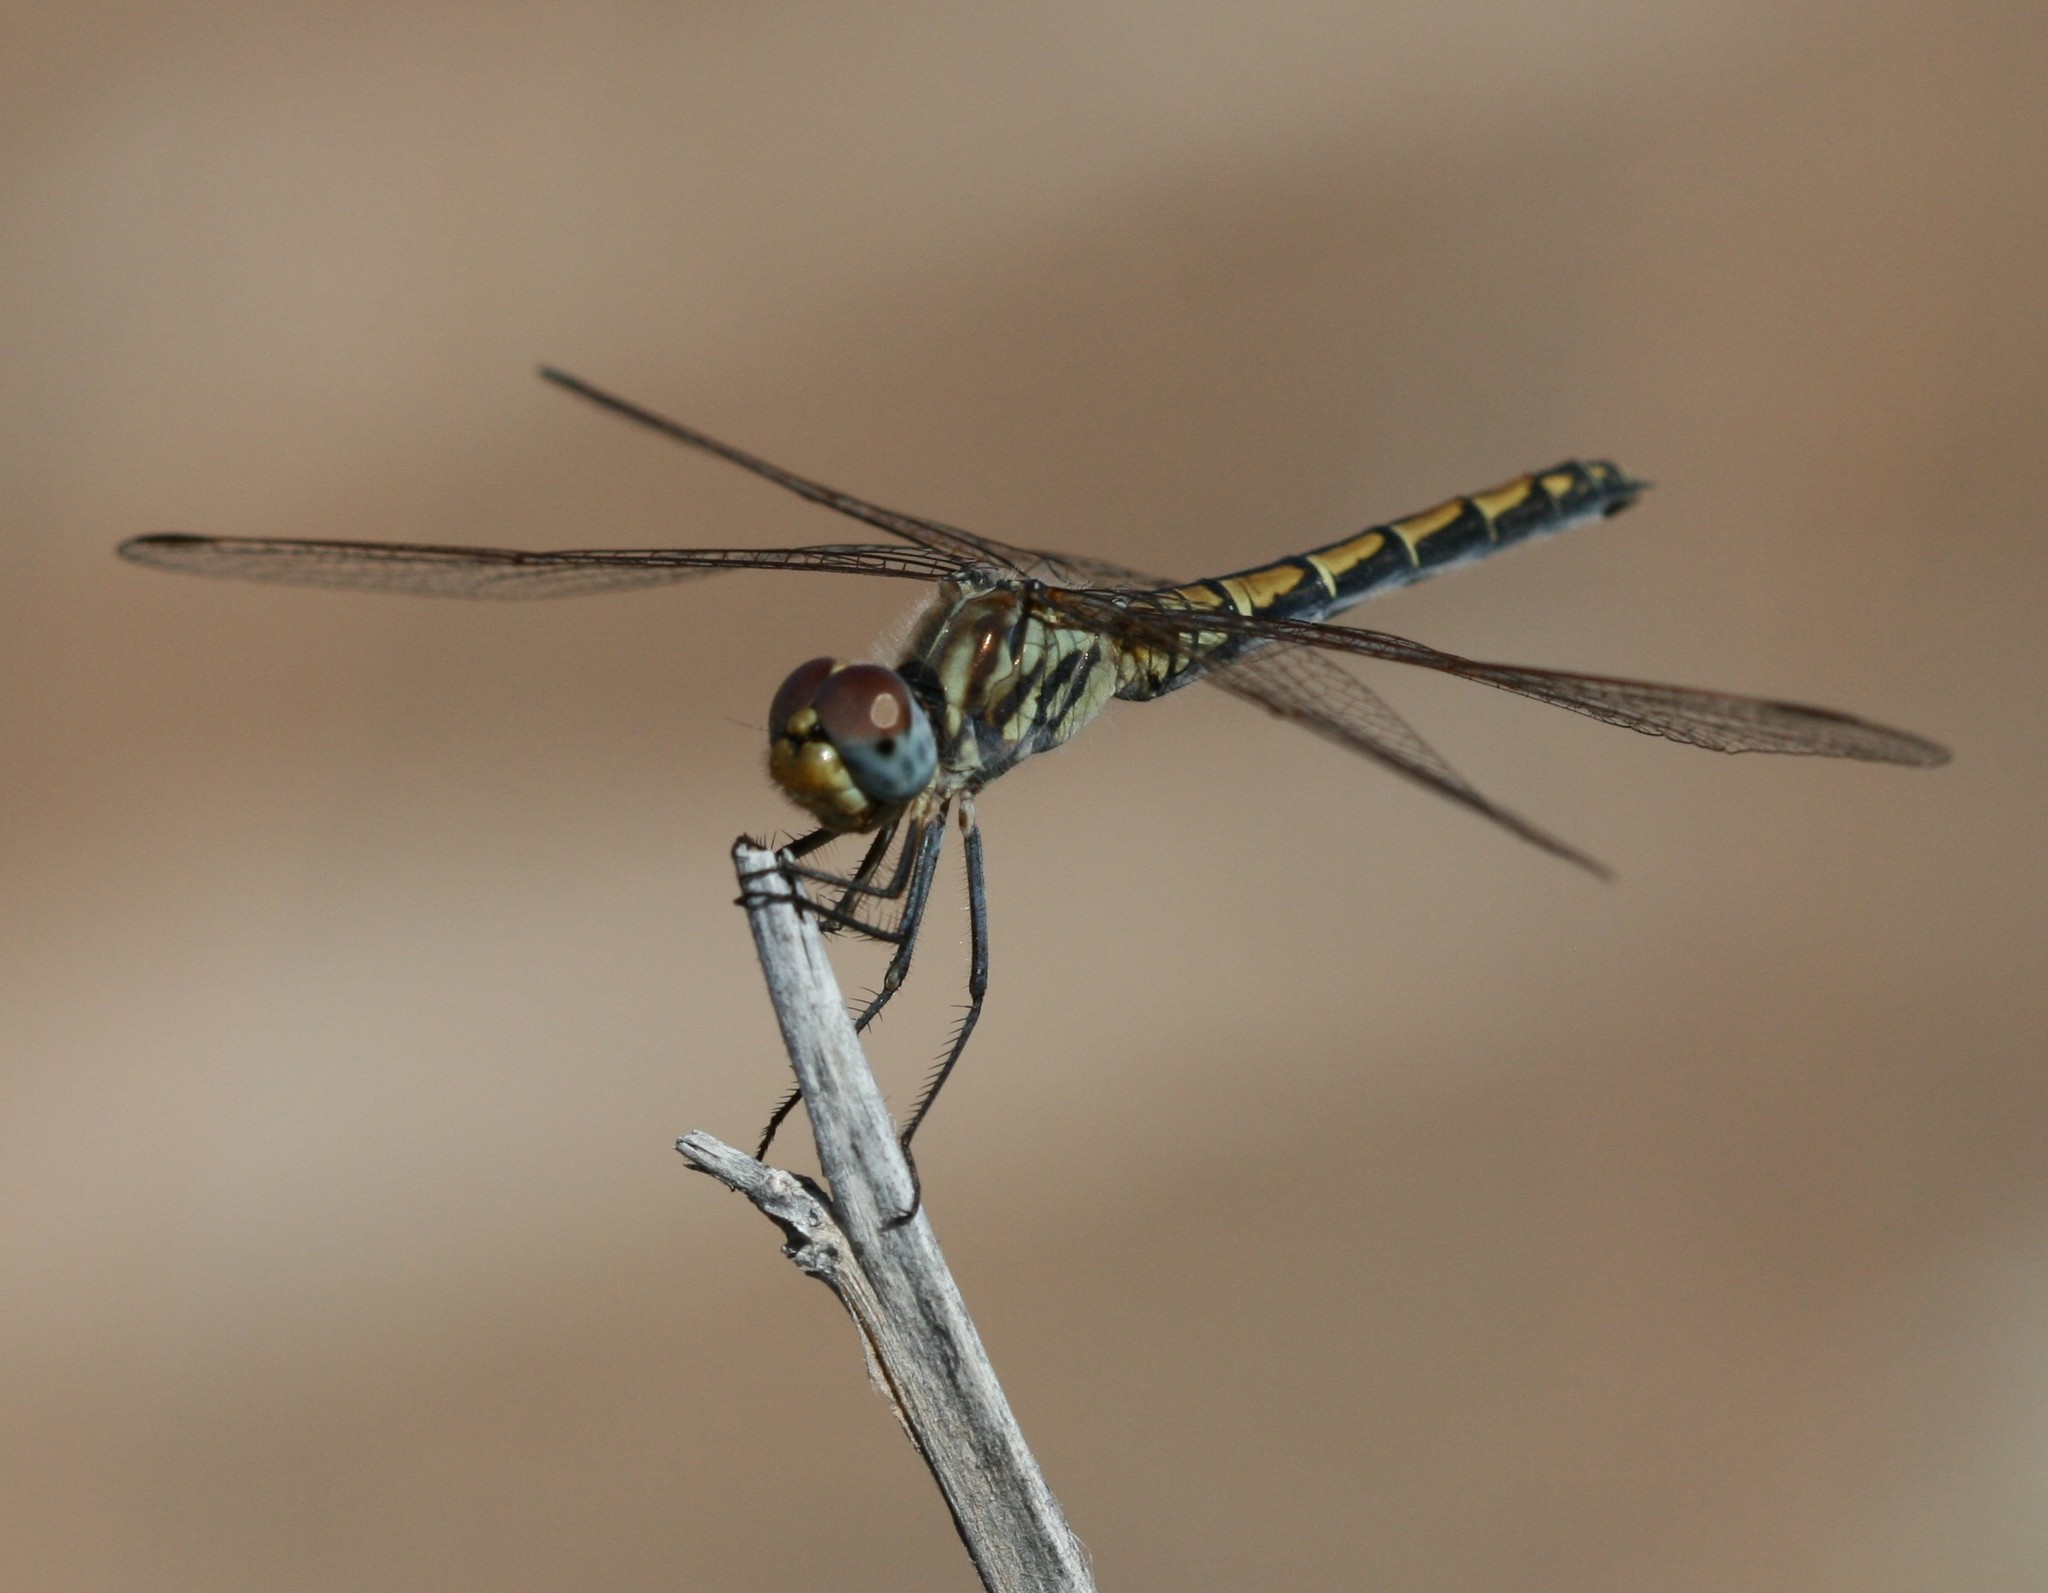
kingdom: Animalia
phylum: Arthropoda
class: Insecta
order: Odonata
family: Libellulidae
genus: Trithemis
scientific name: Trithemis arteriosa
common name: Red-veined dropwing
